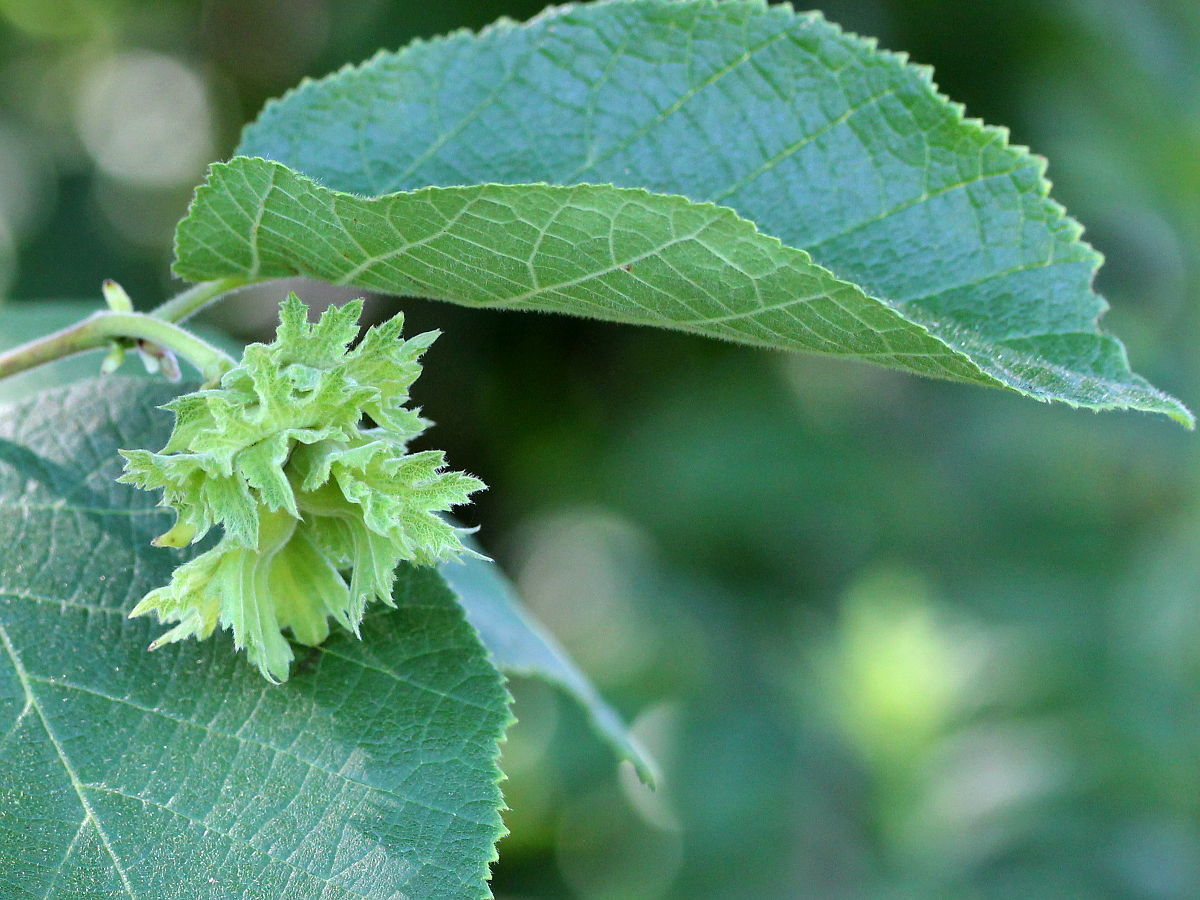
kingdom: Plantae
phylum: Tracheophyta
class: Magnoliopsida
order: Fagales
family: Betulaceae
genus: Corylus
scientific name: Corylus americana
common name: American hazel
